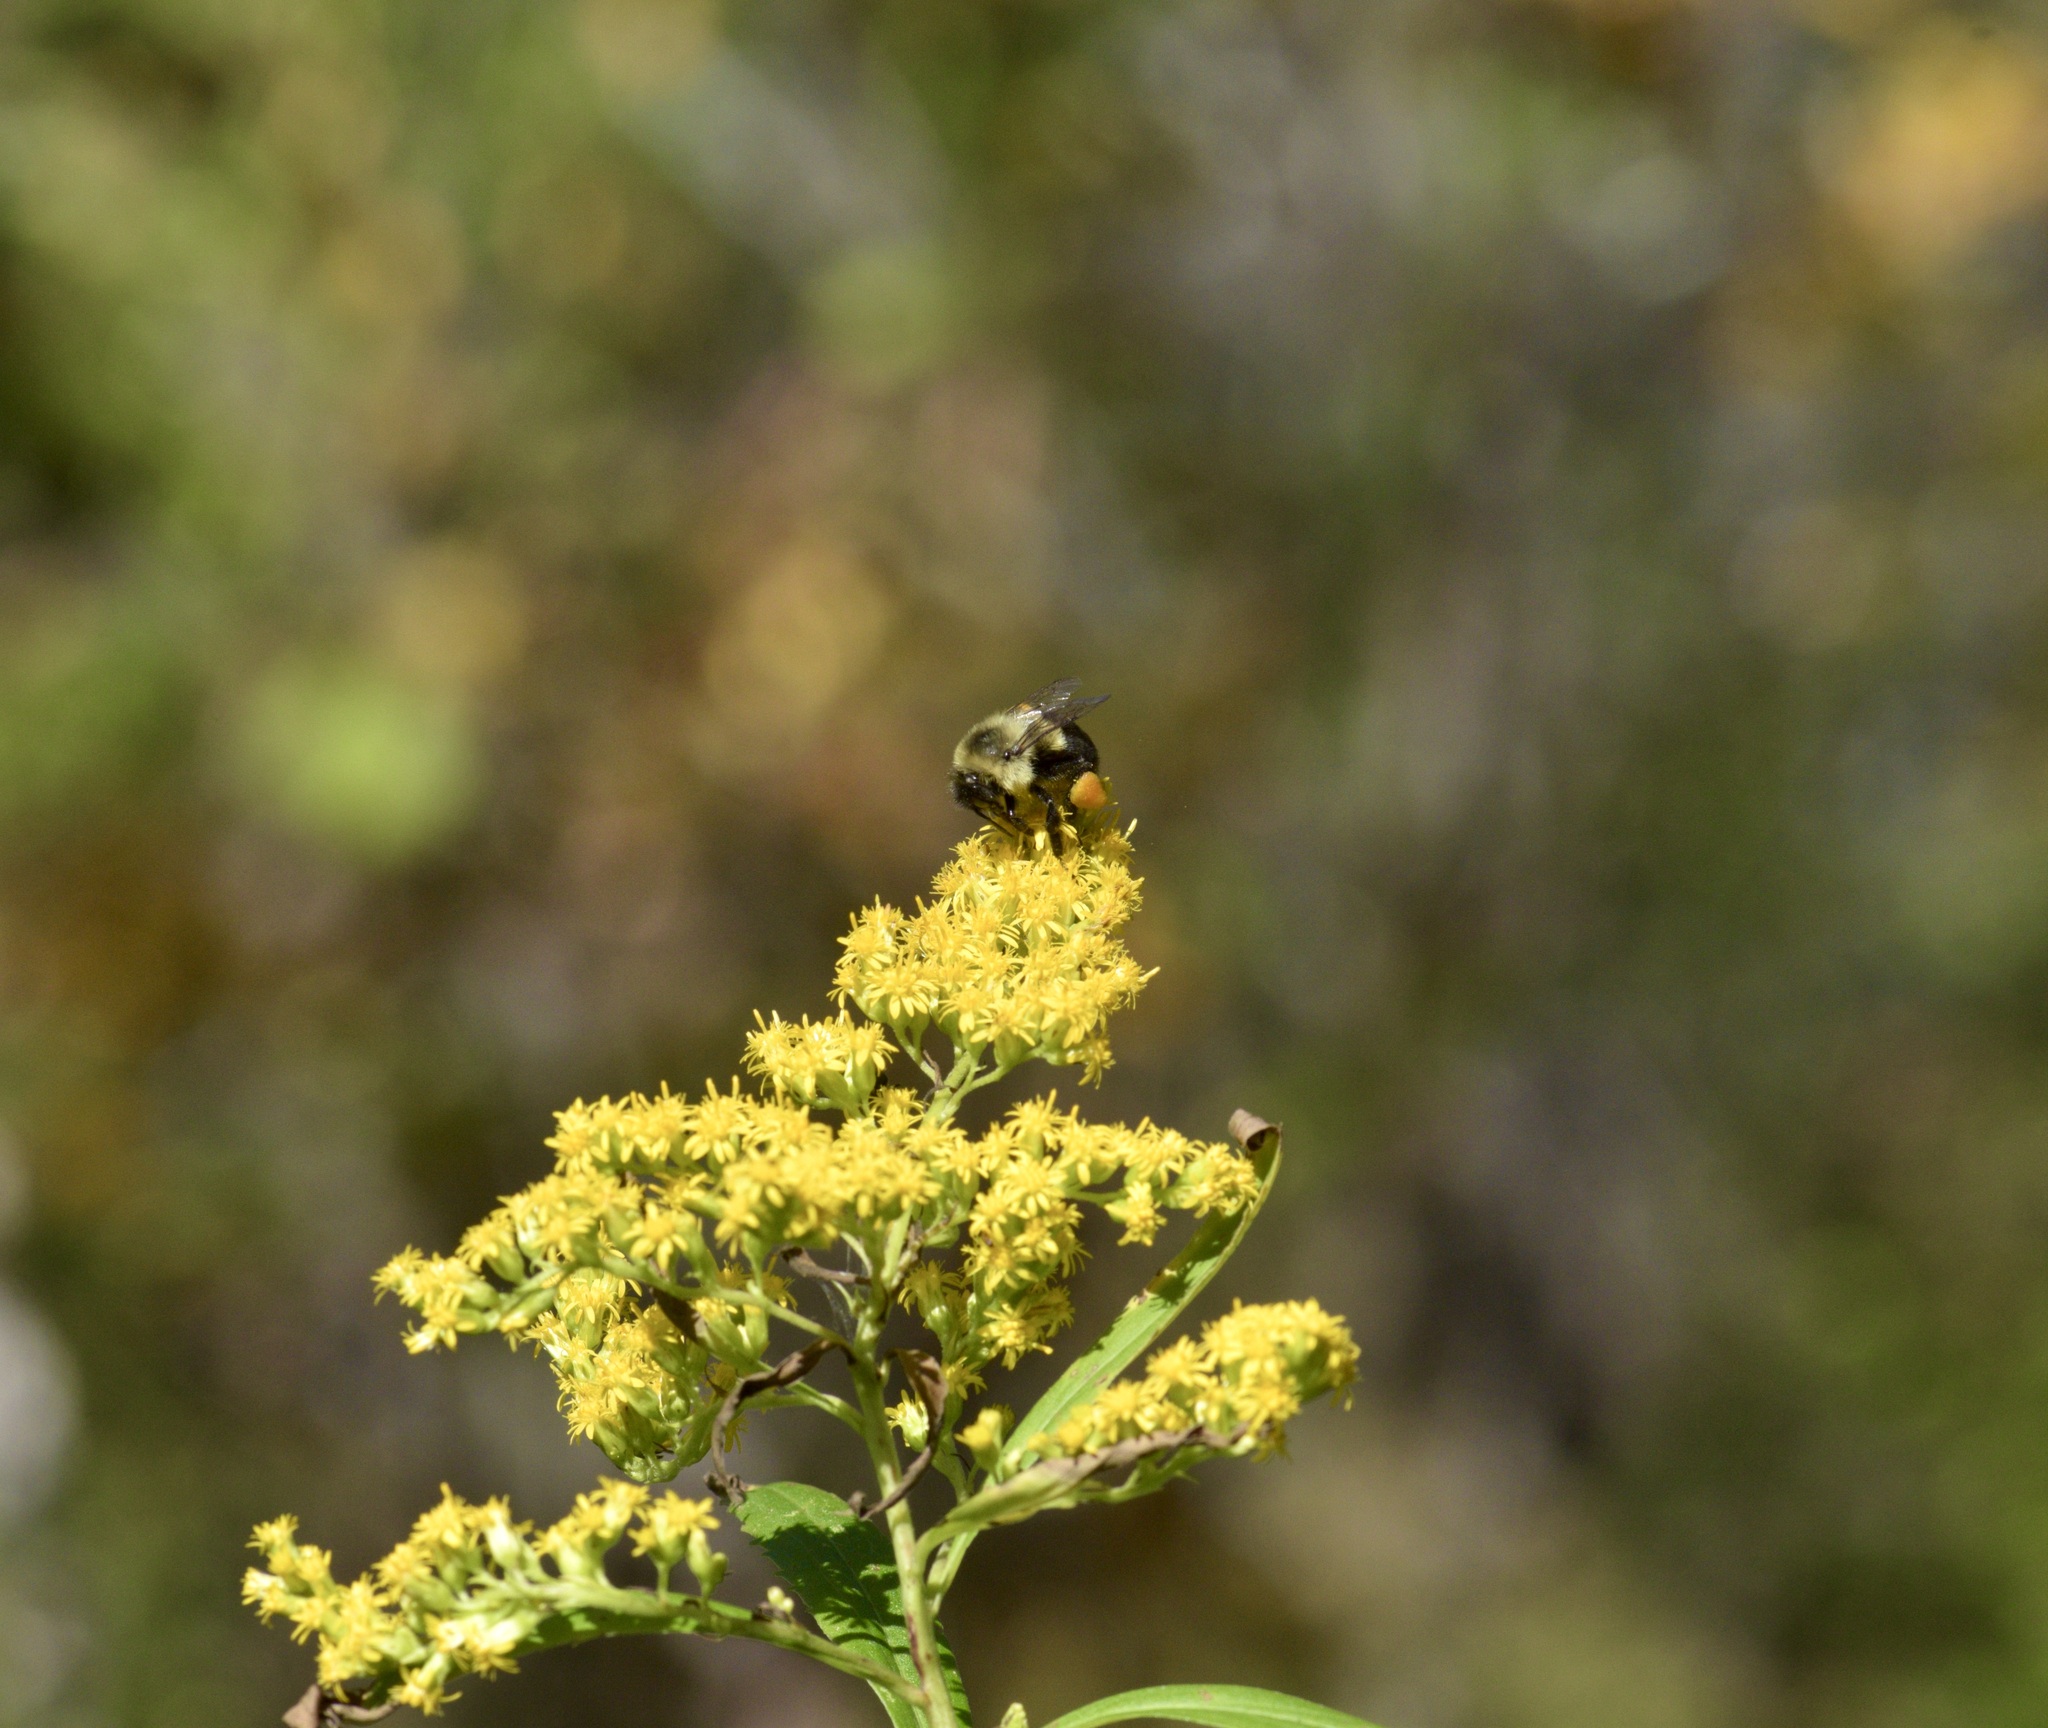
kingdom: Animalia
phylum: Arthropoda
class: Insecta
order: Hymenoptera
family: Apidae
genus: Bombus
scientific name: Bombus impatiens
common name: Common eastern bumble bee
